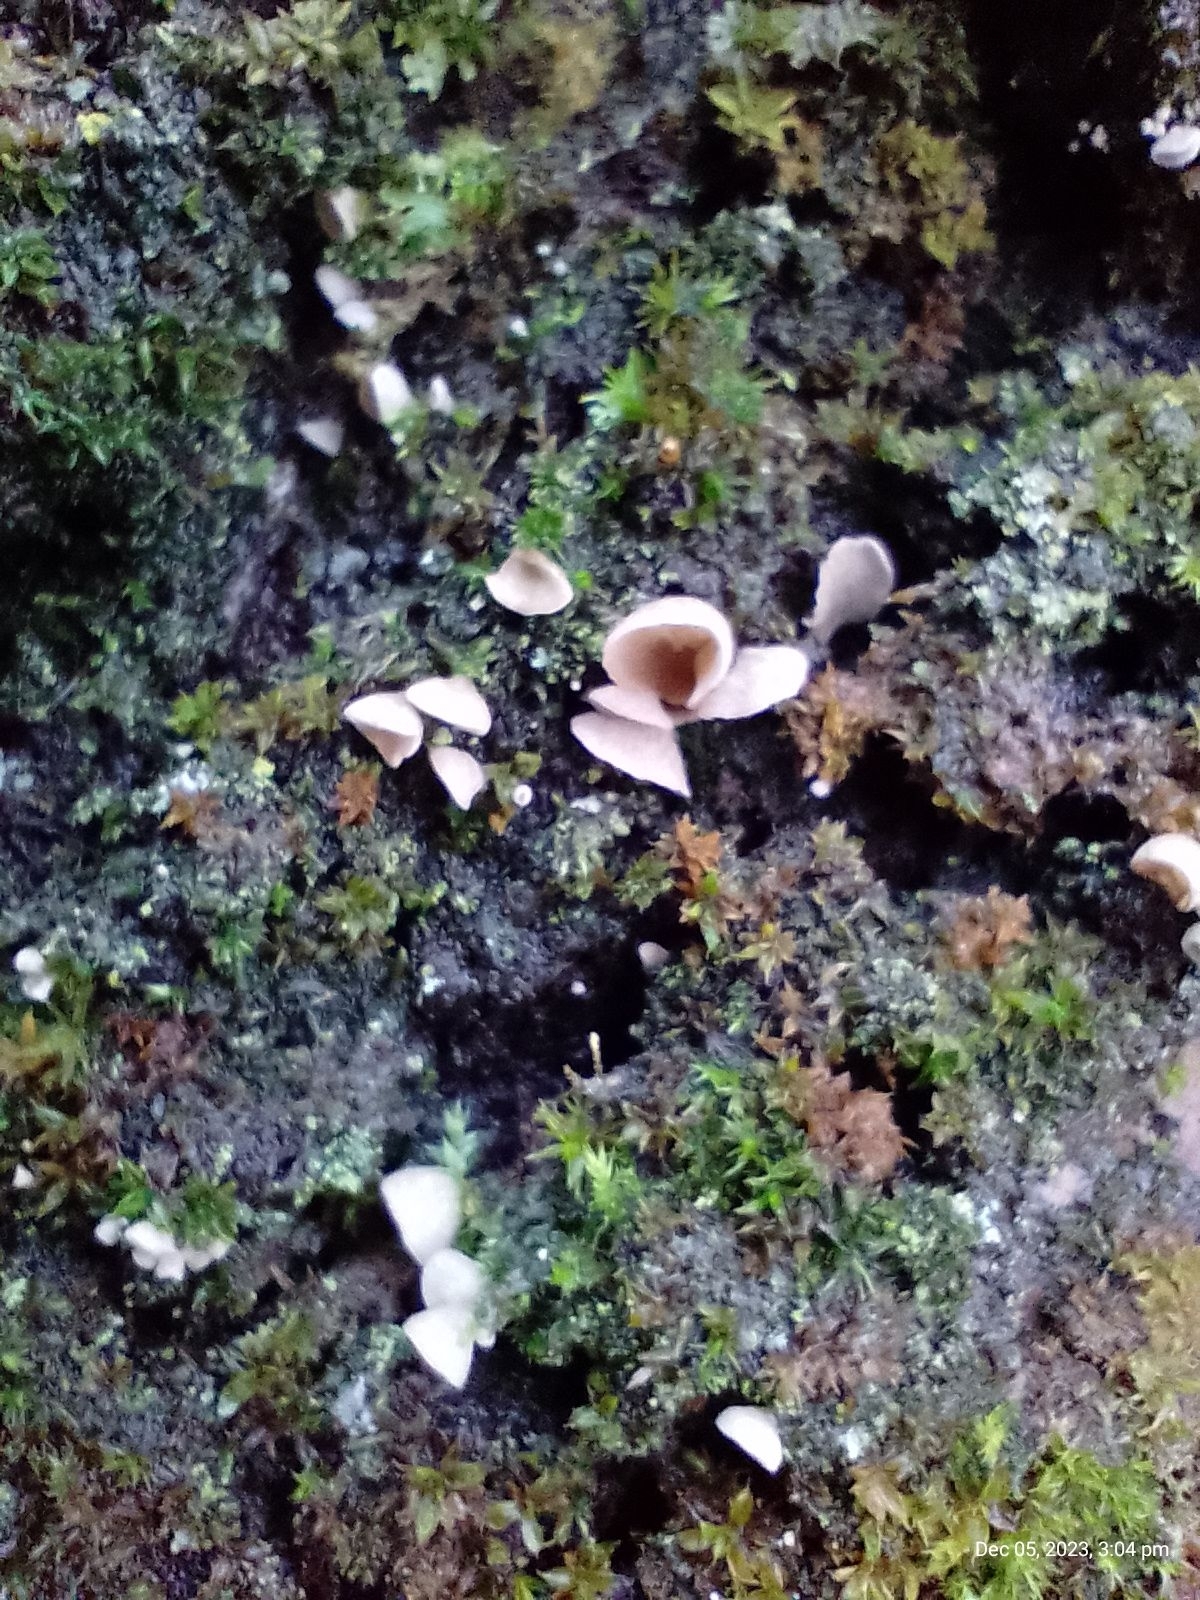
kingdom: Fungi
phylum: Basidiomycota
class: Agaricomycetes
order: Agaricales
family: Hygrophoraceae
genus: Arrhenia
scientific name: Arrhenia retiruga
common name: Small moss oysterling
